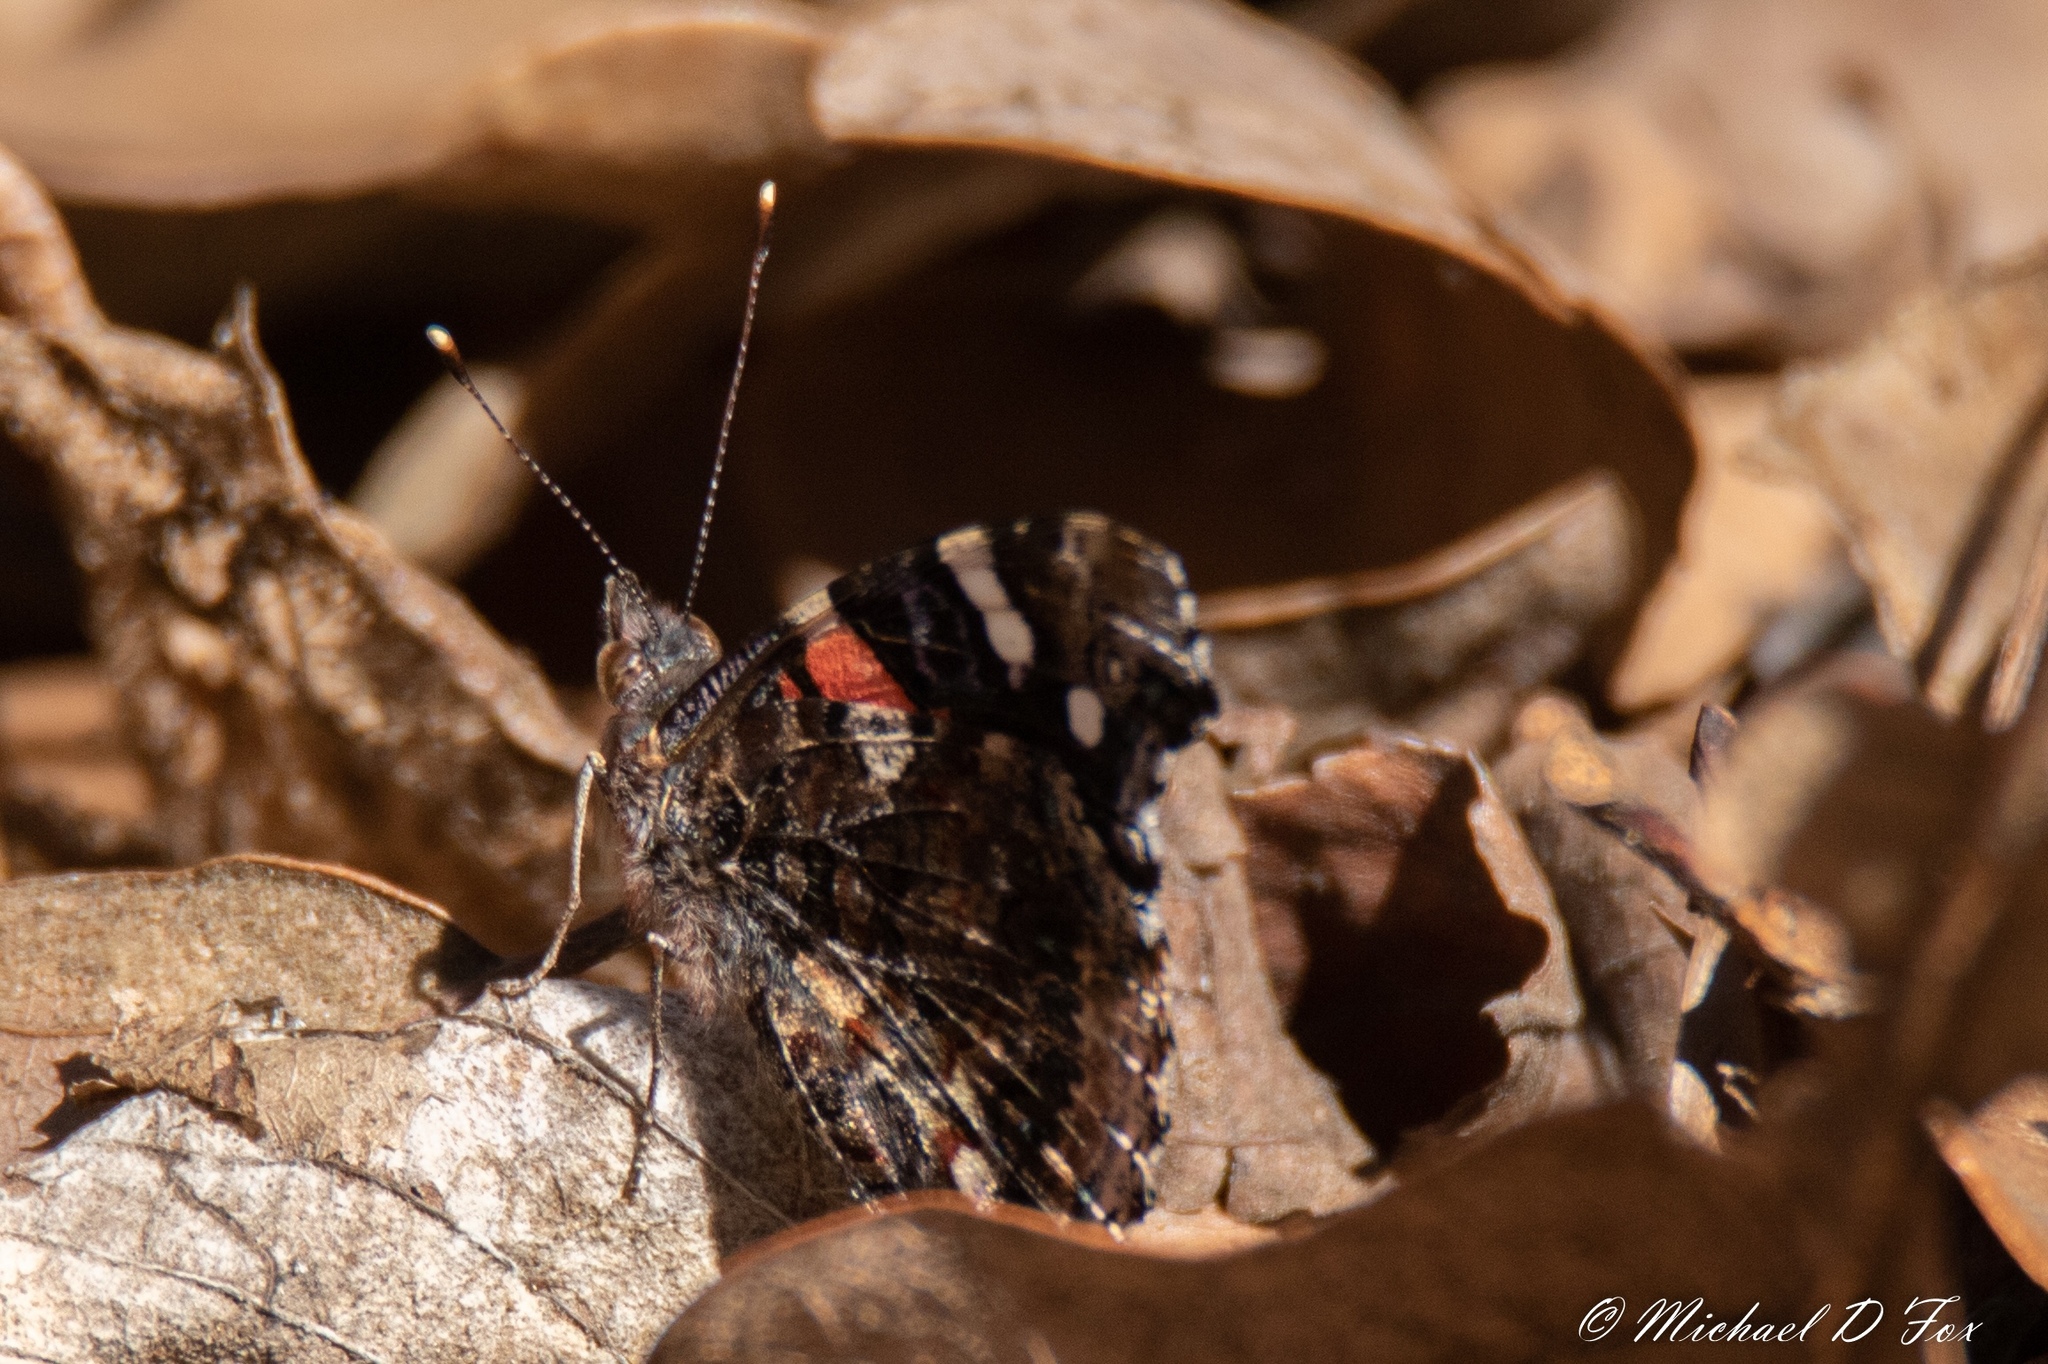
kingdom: Animalia
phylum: Arthropoda
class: Insecta
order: Lepidoptera
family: Nymphalidae
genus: Vanessa
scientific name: Vanessa atalanta
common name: Red admiral
